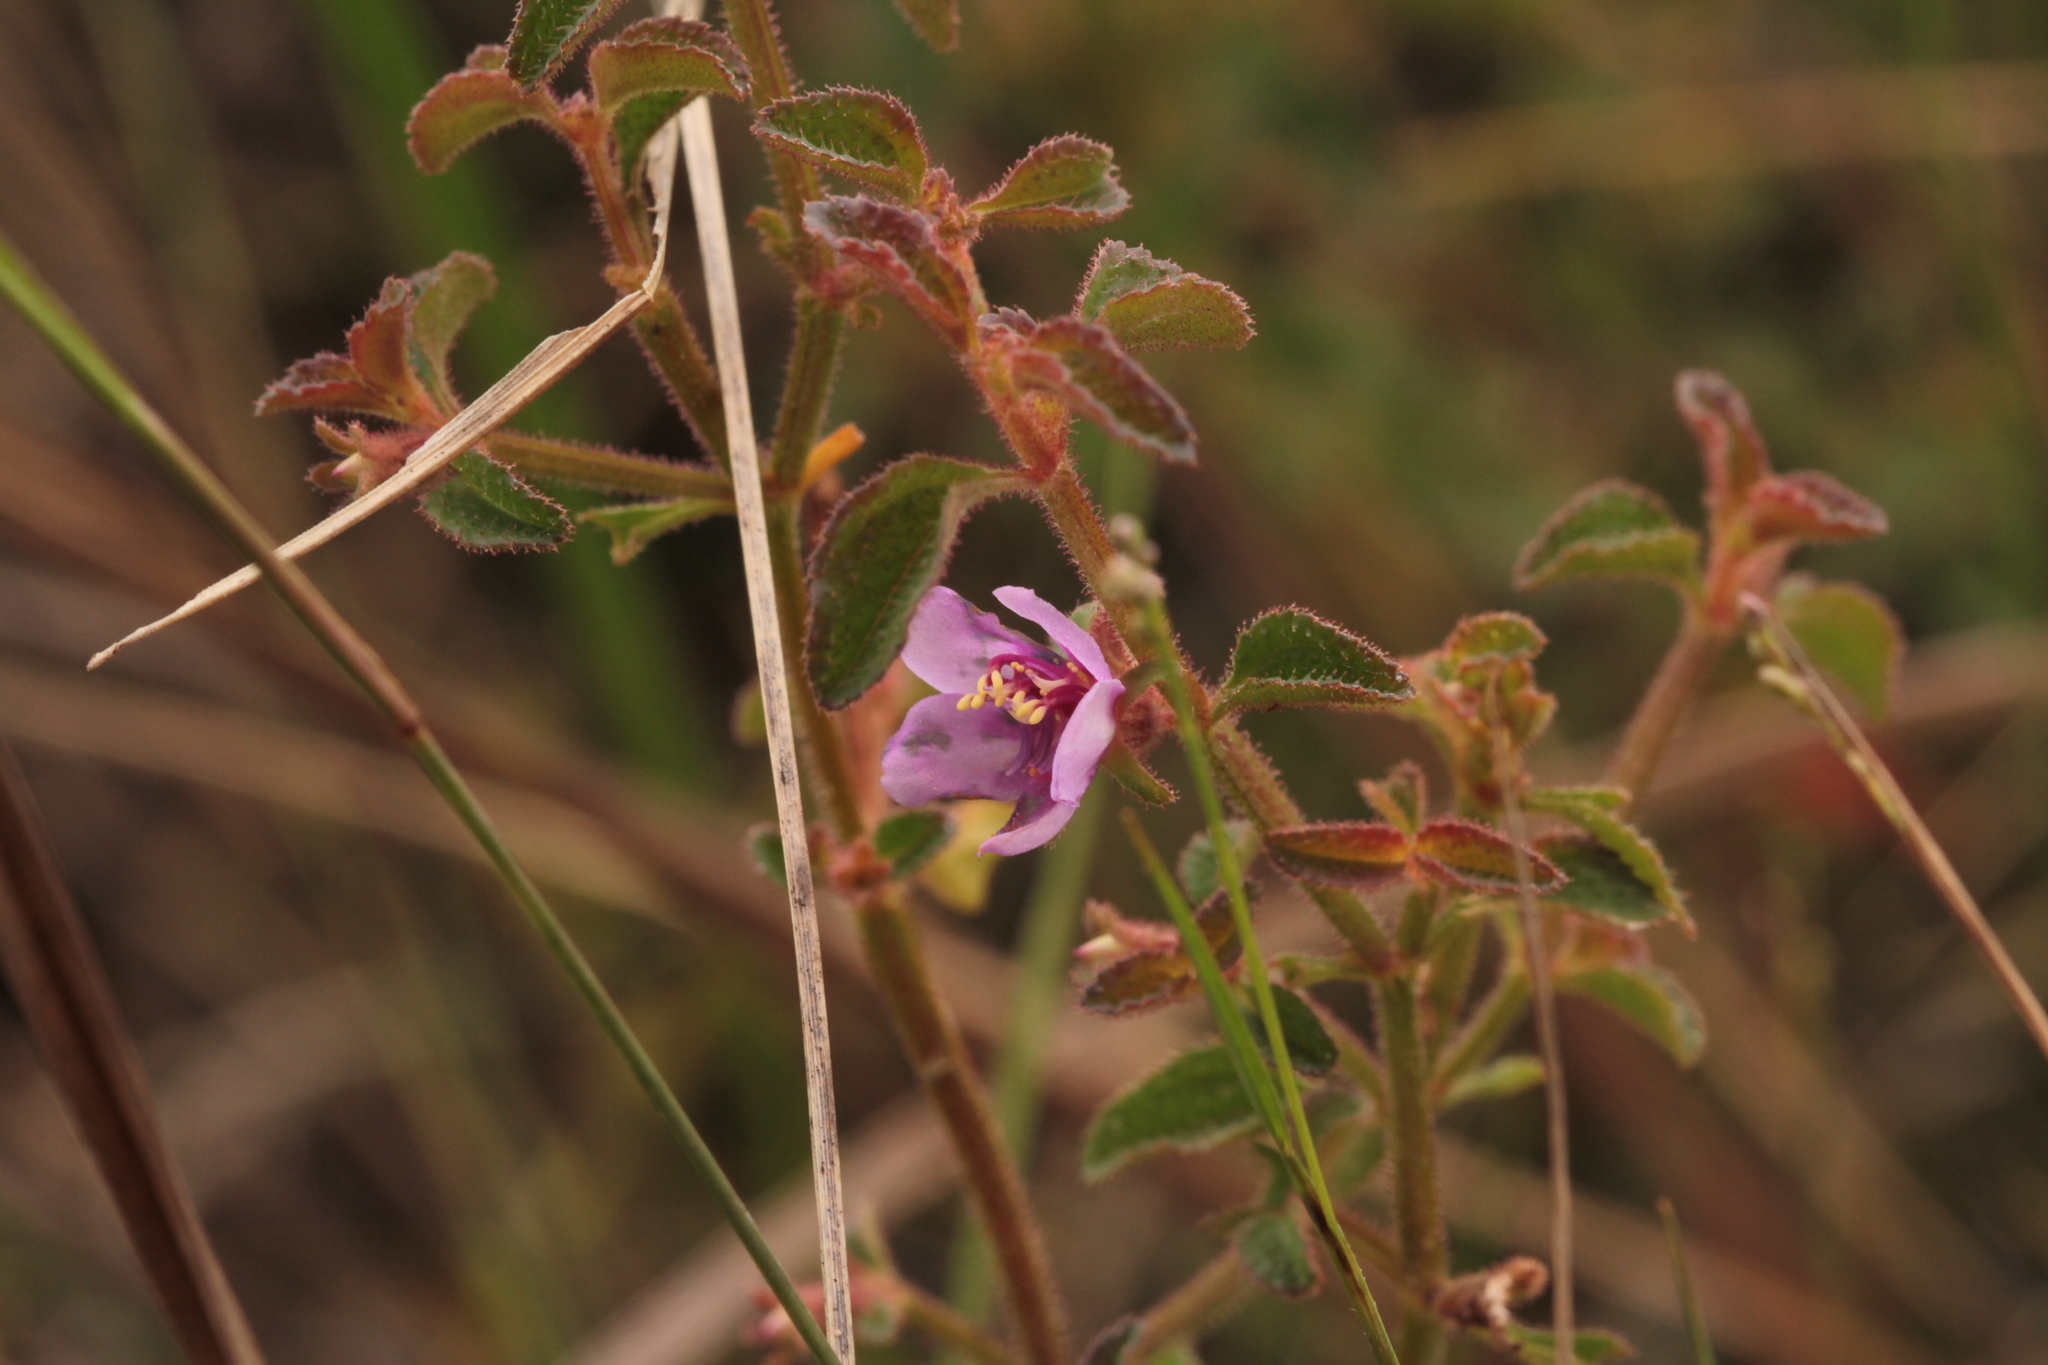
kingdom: Plantae
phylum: Tracheophyta
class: Magnoliopsida
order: Myrtales
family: Melastomataceae
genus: Acisanthera
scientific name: Acisanthera uniflora
